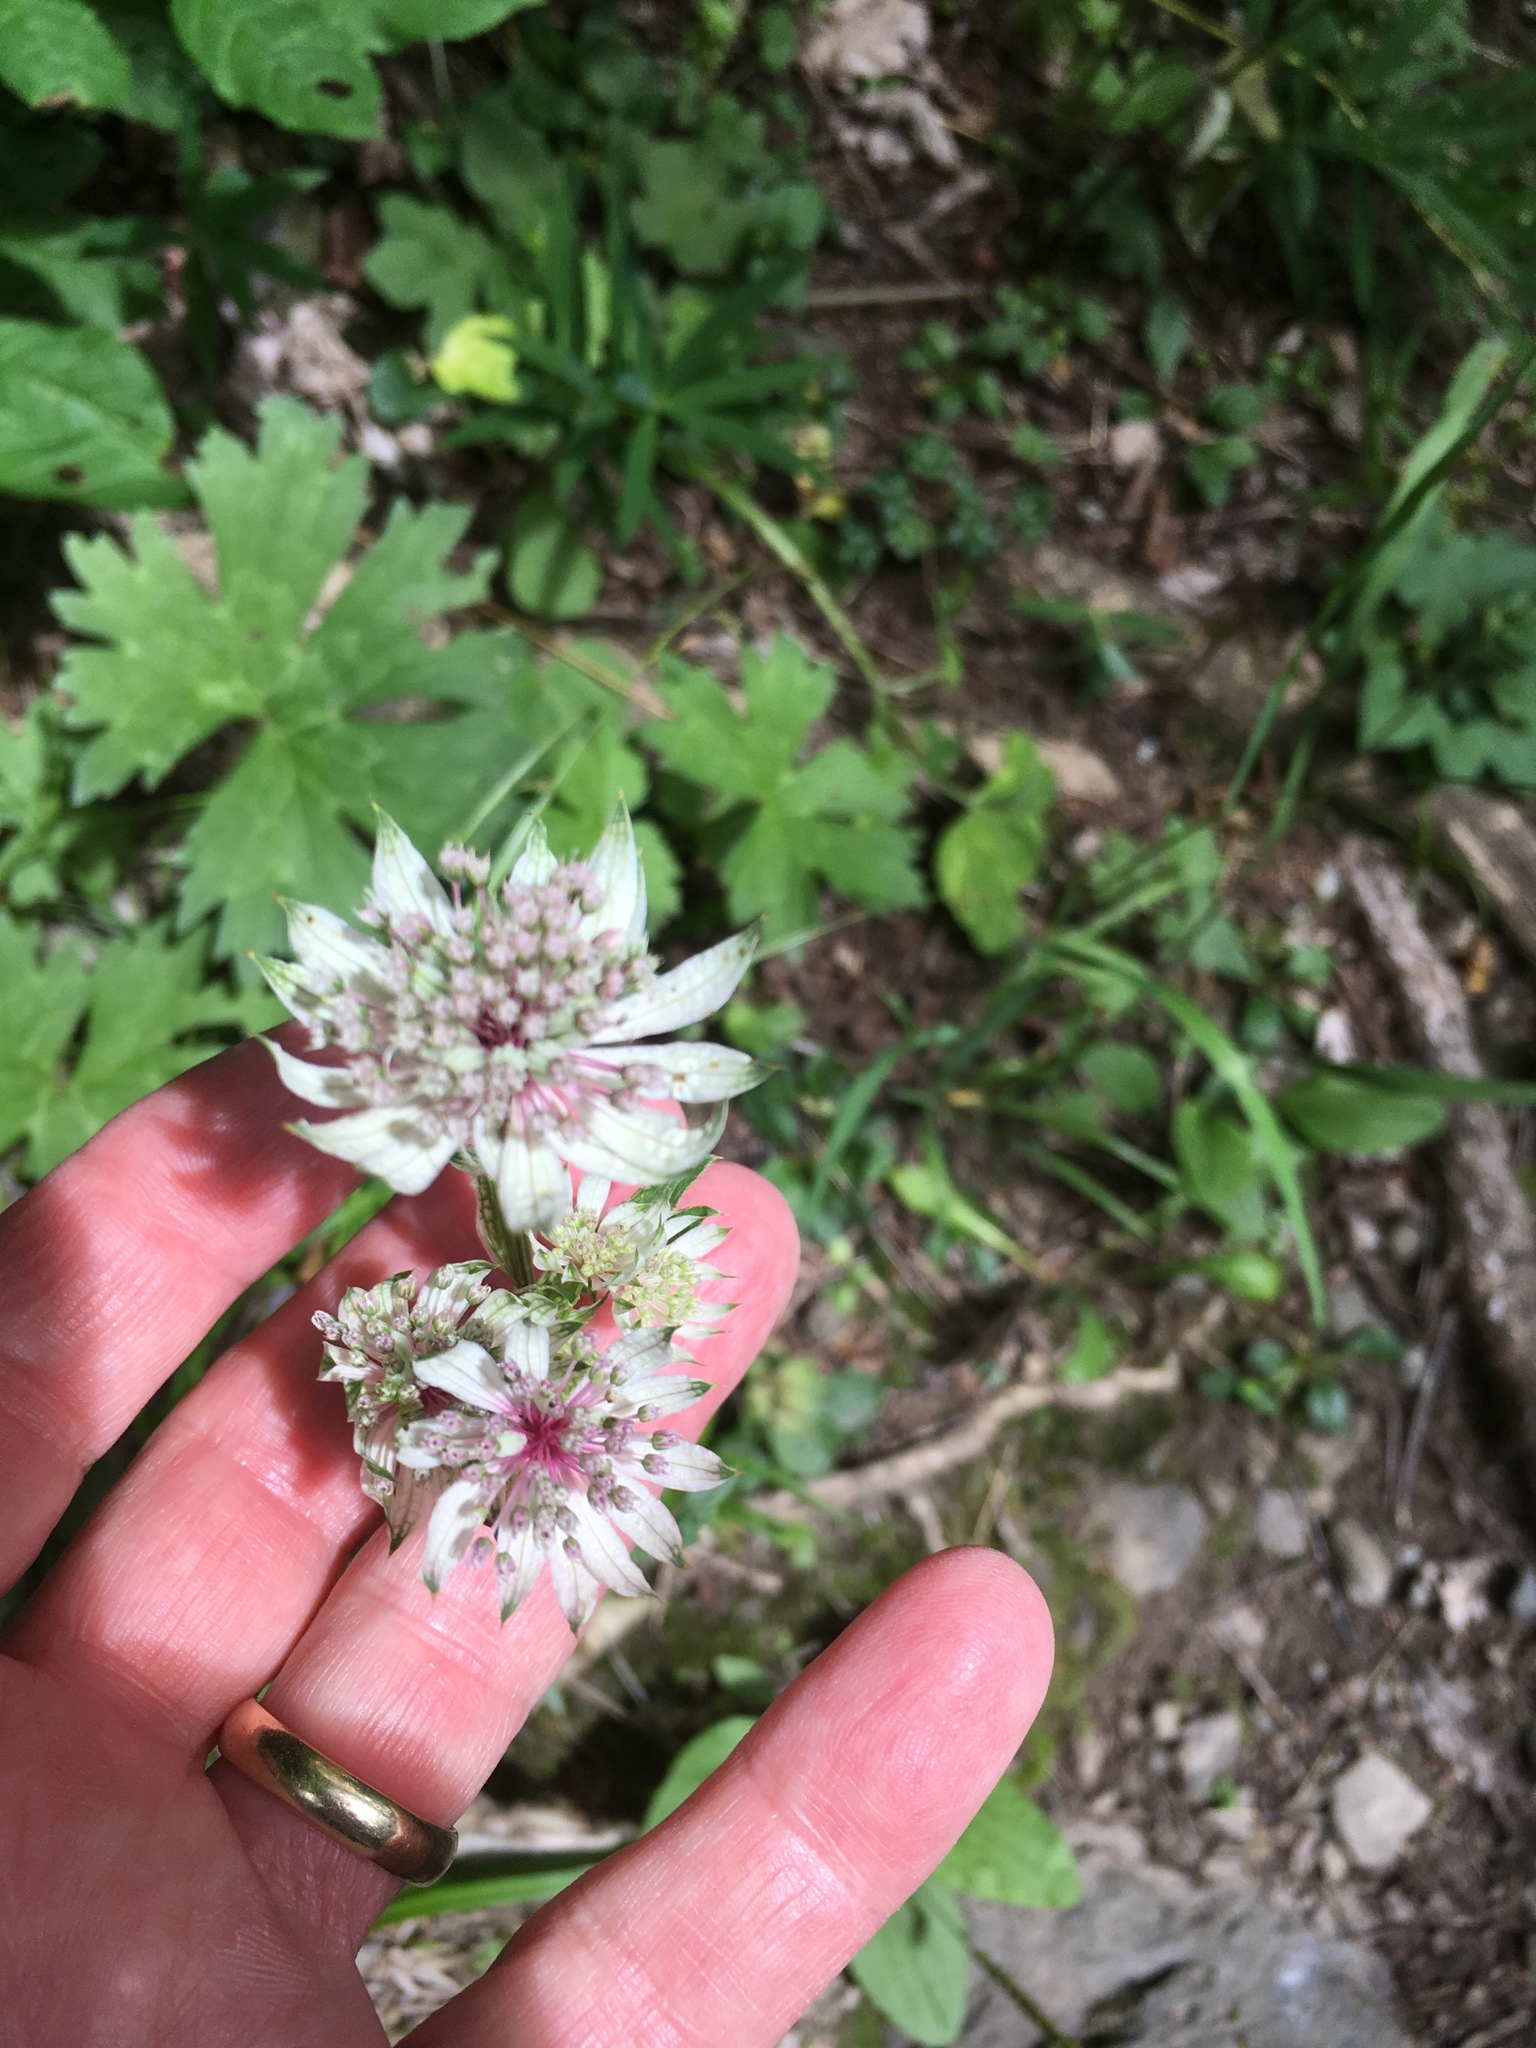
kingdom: Plantae
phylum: Tracheophyta
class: Magnoliopsida
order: Apiales
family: Apiaceae
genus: Astrantia
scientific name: Astrantia major
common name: Greater masterwort
